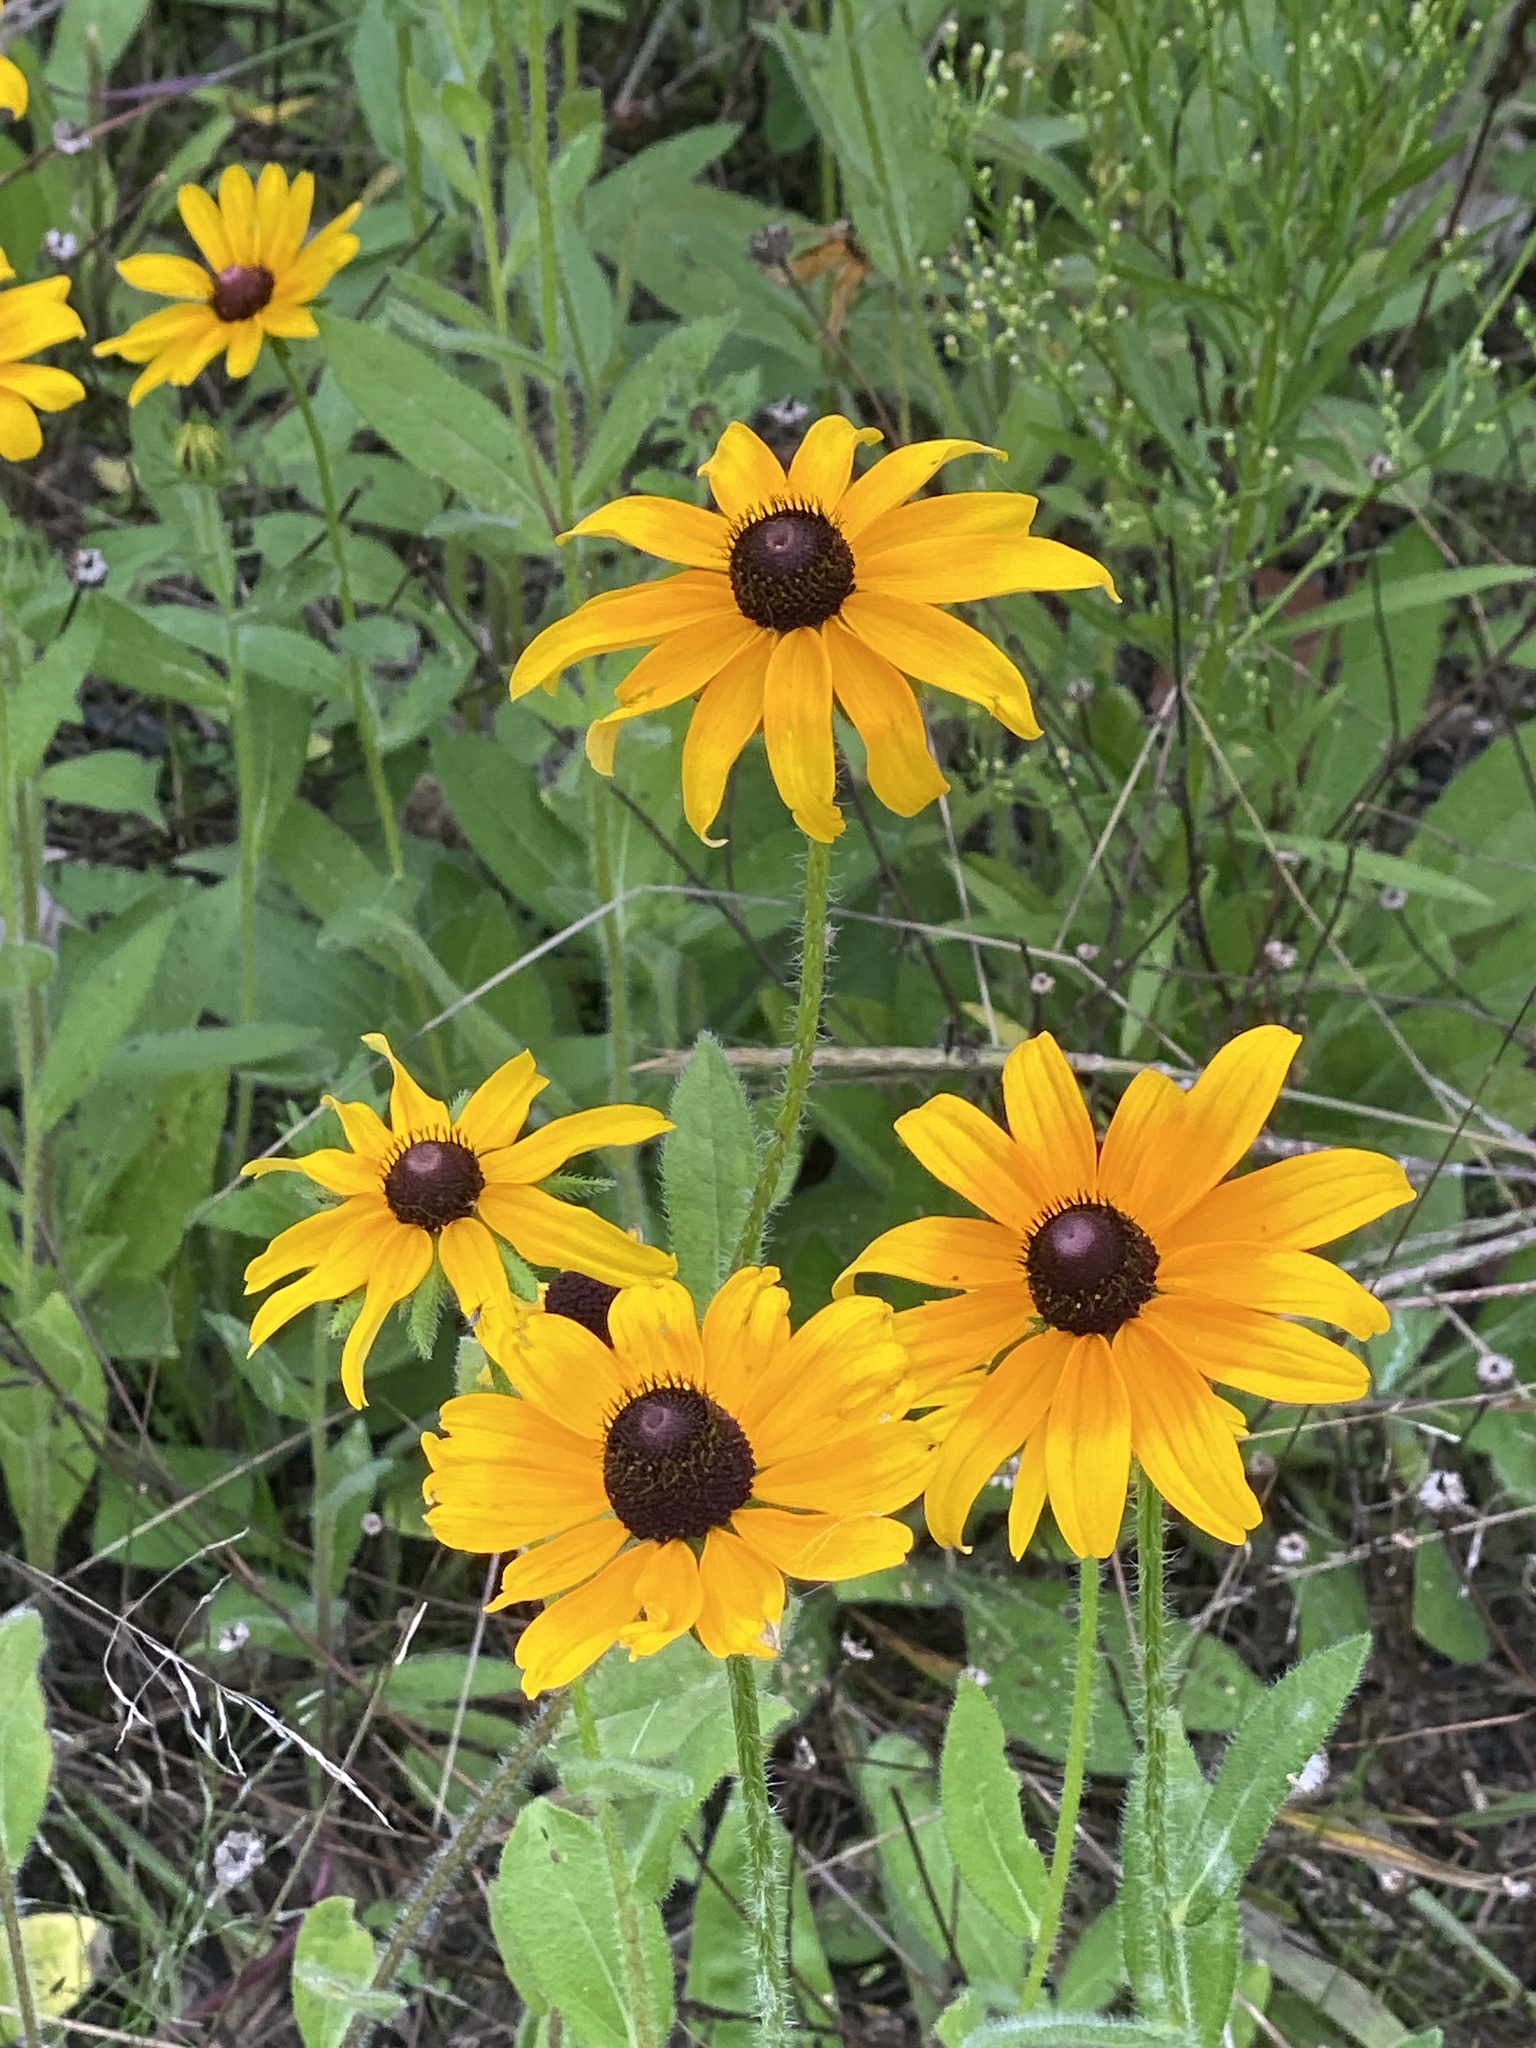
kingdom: Plantae
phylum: Tracheophyta
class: Magnoliopsida
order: Asterales
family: Asteraceae
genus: Rudbeckia
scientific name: Rudbeckia hirta
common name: Black-eyed-susan
